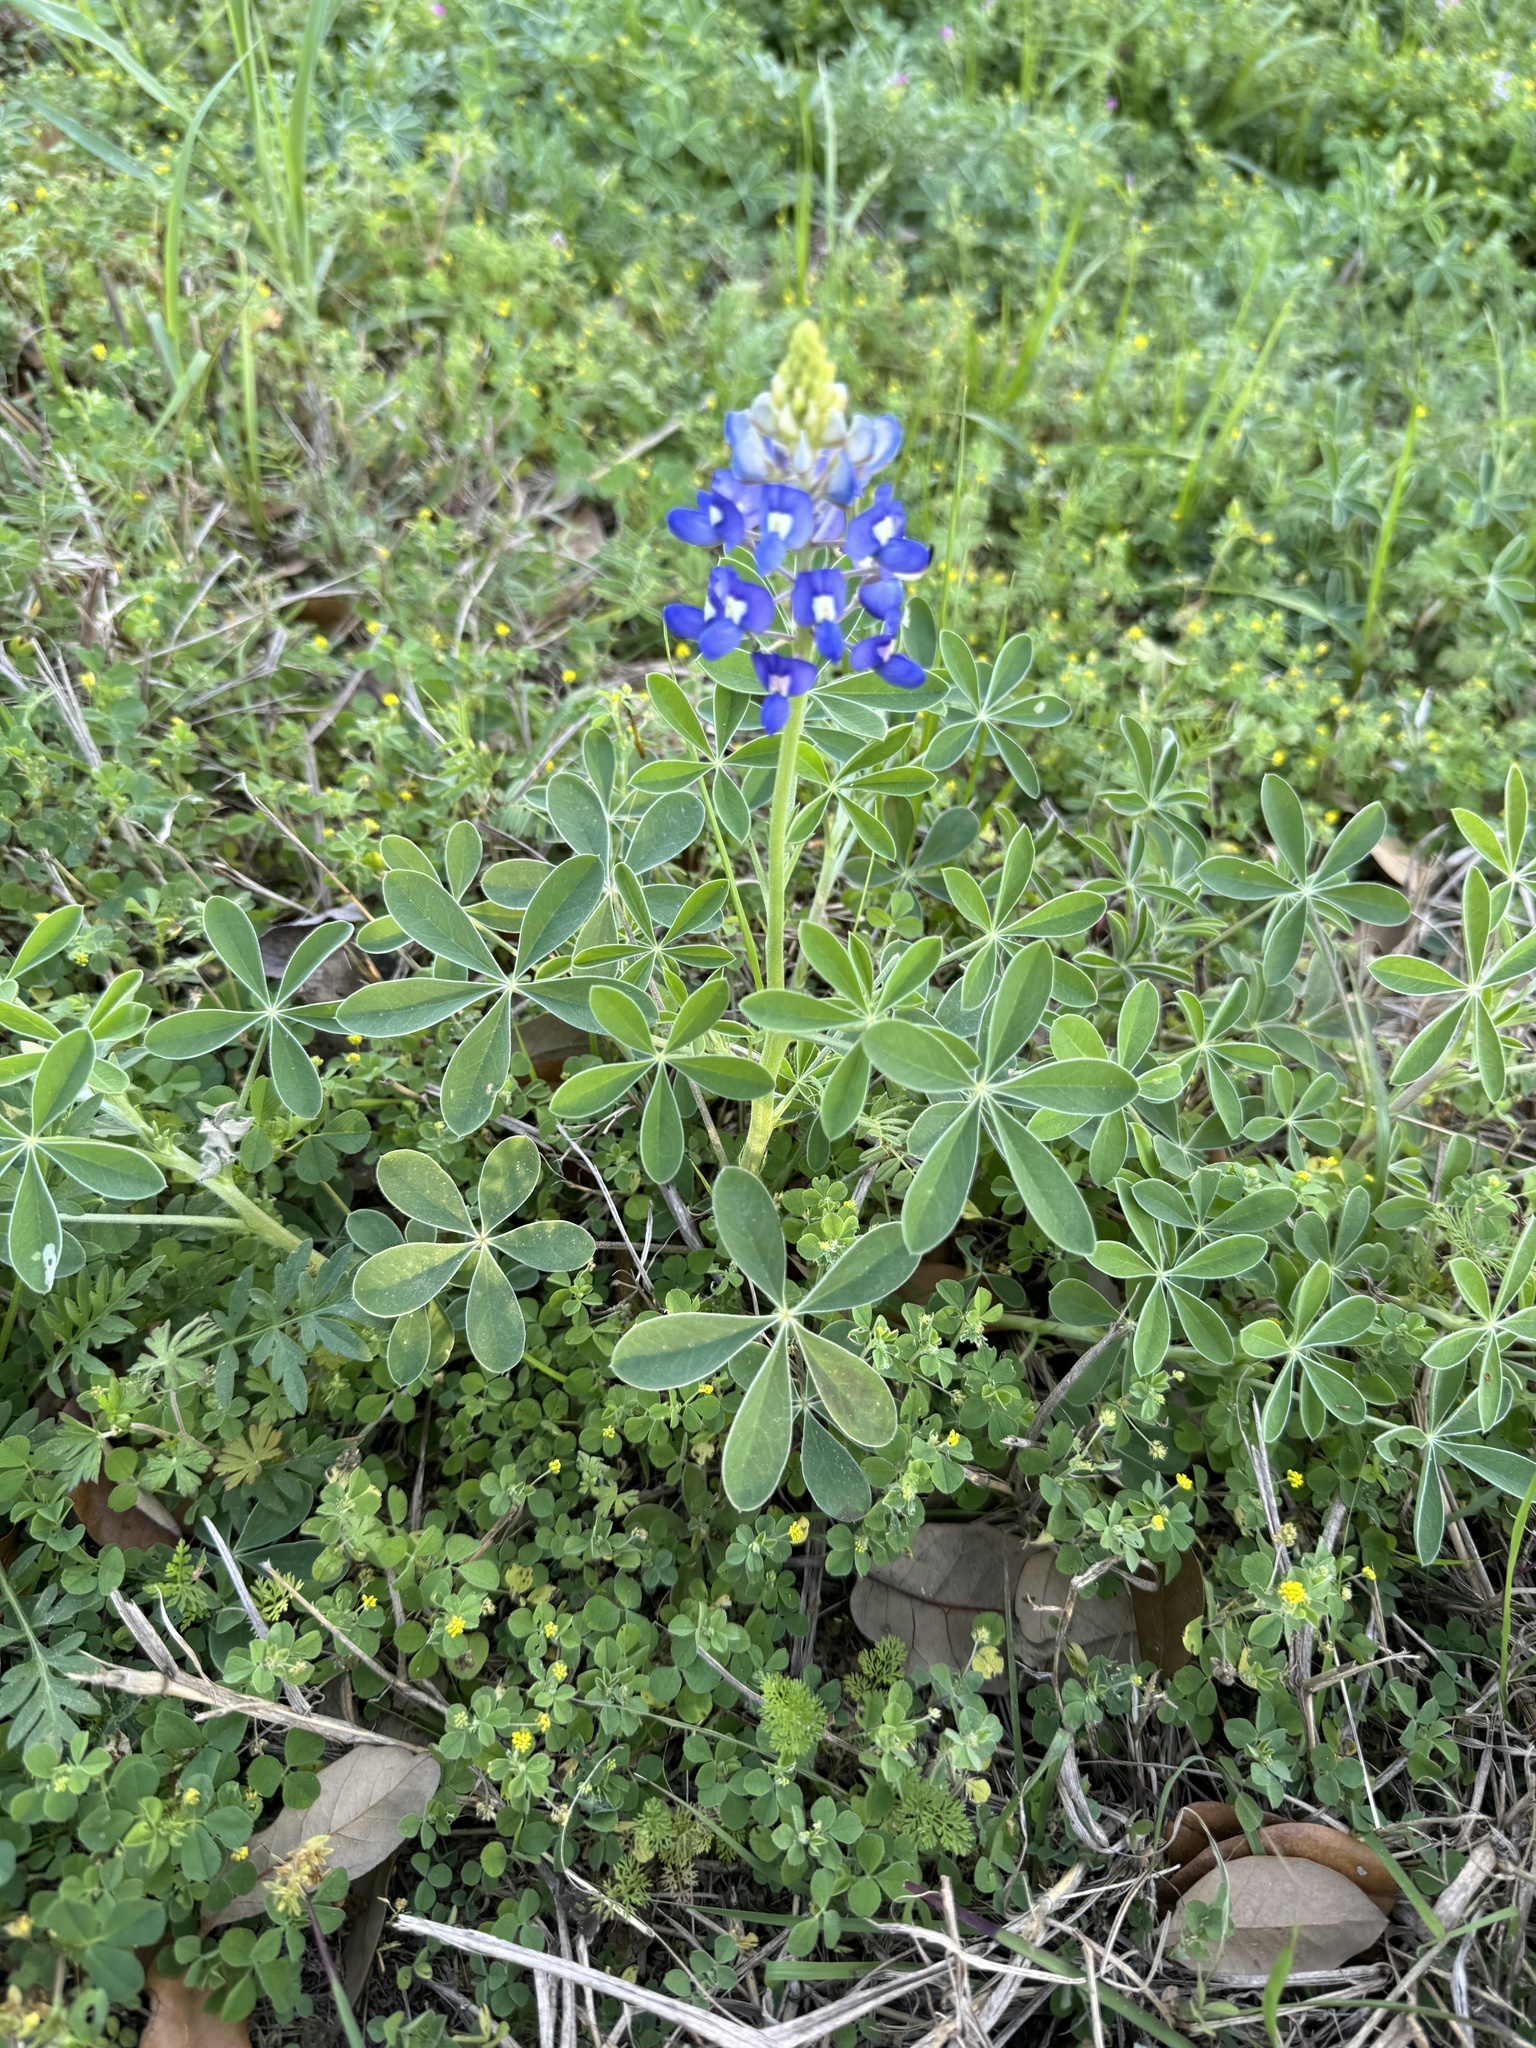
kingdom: Plantae
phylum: Tracheophyta
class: Magnoliopsida
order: Fabales
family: Fabaceae
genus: Lupinus
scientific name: Lupinus texensis
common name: Texas bluebonnet
